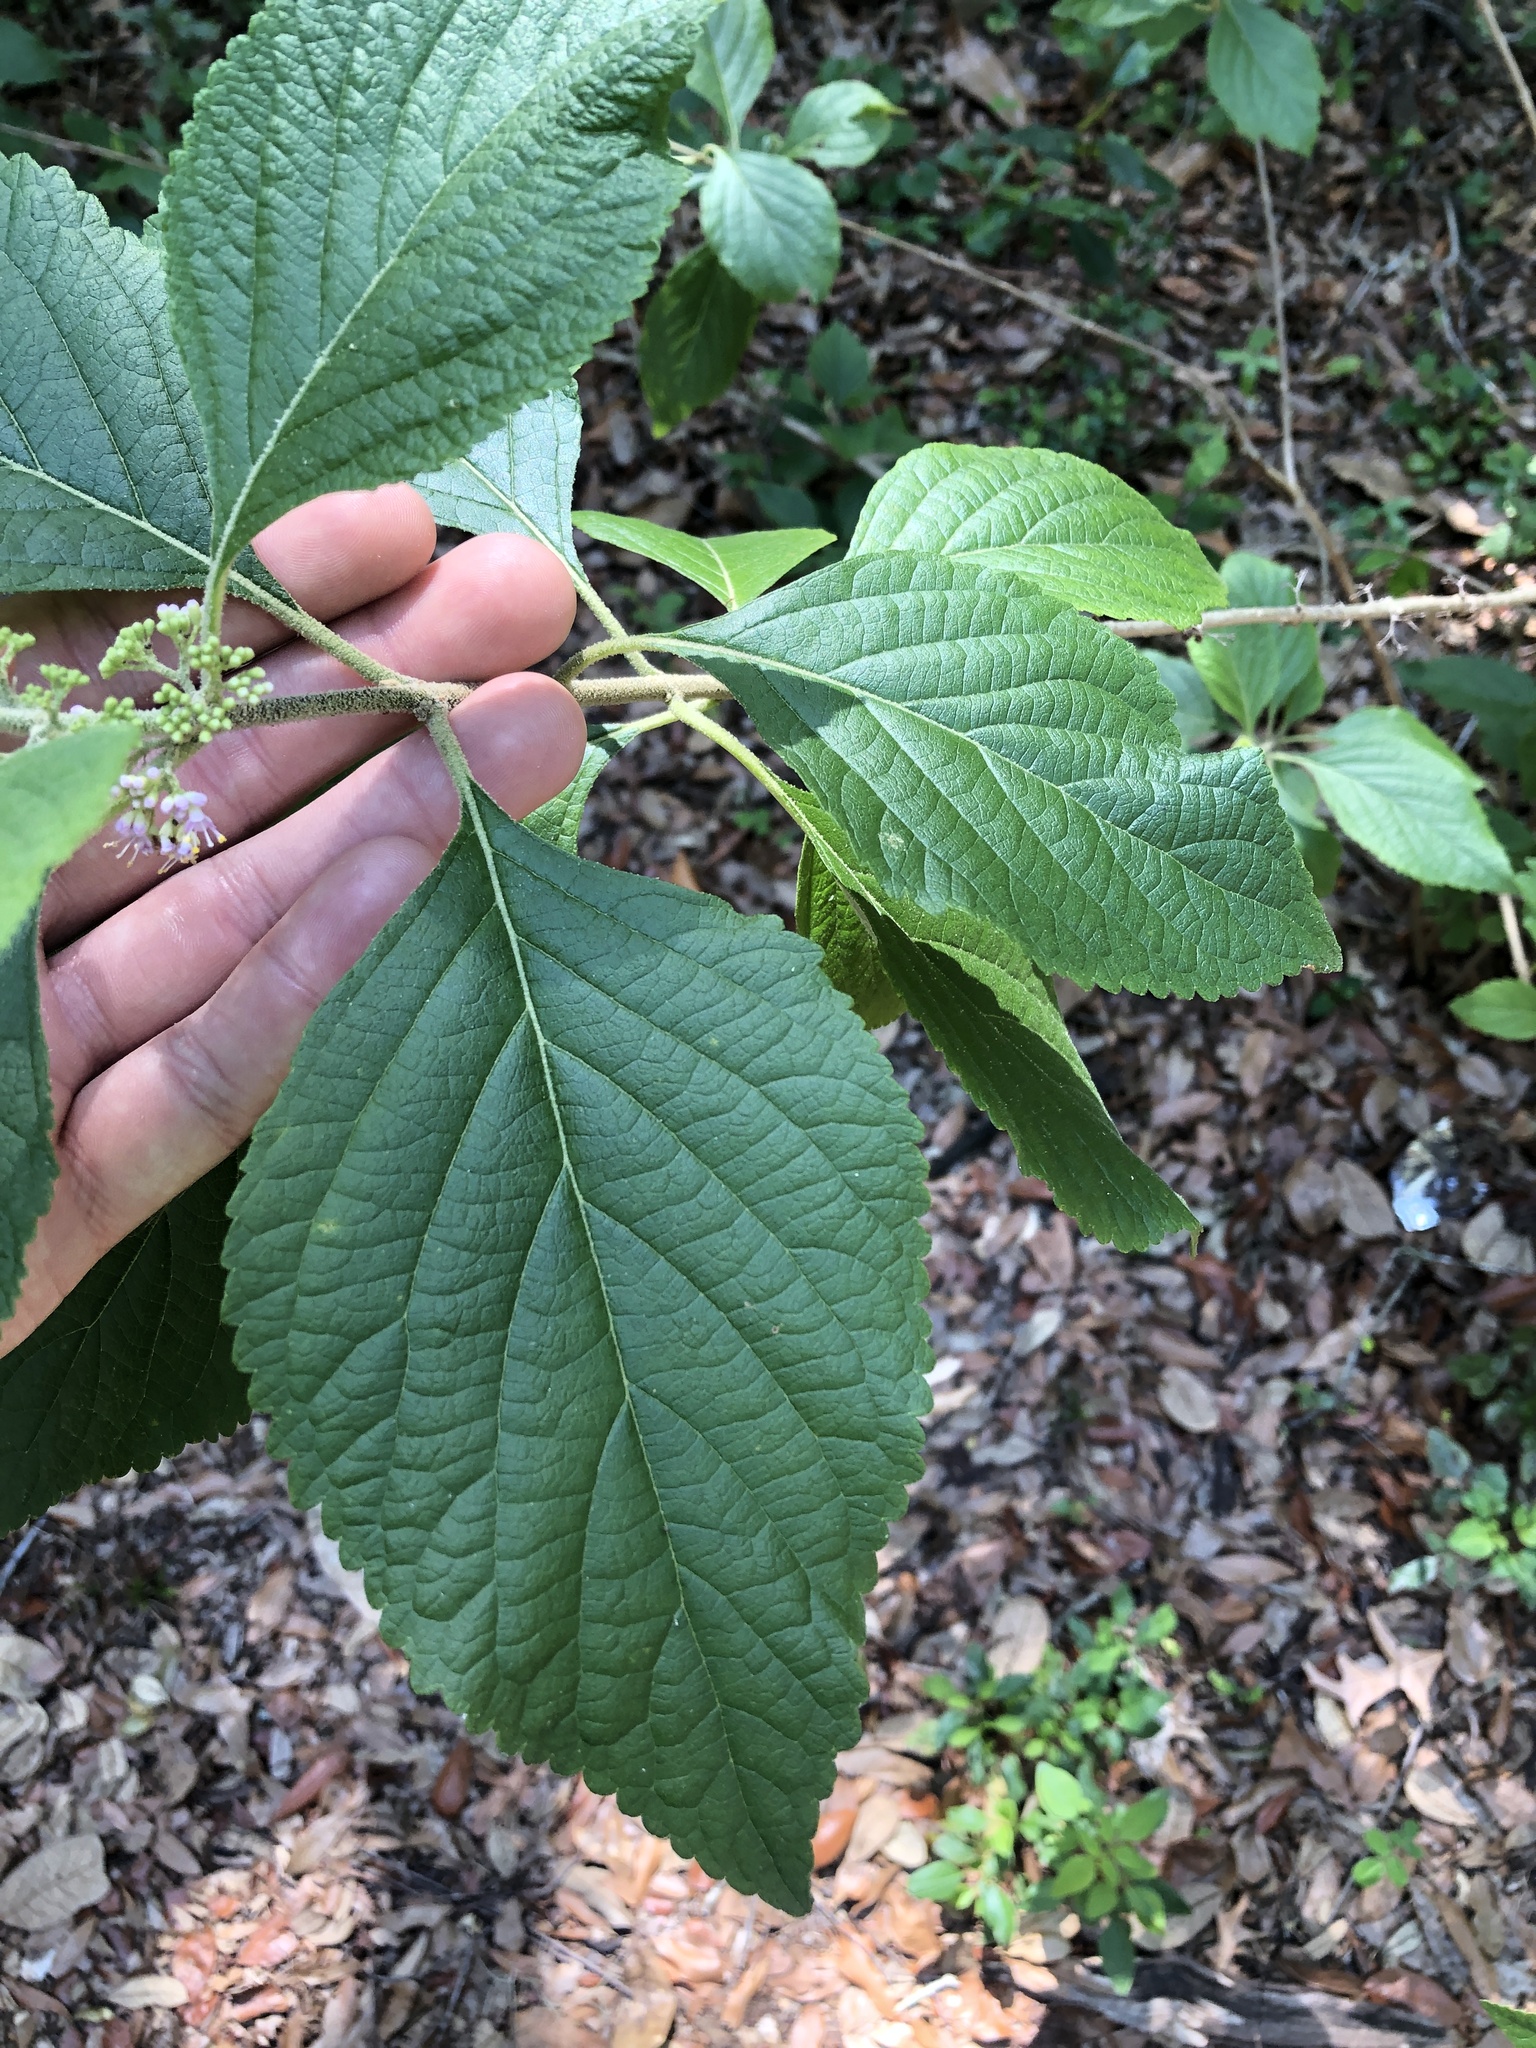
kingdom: Plantae
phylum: Tracheophyta
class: Magnoliopsida
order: Lamiales
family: Lamiaceae
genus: Callicarpa
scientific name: Callicarpa americana
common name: American beautyberry
